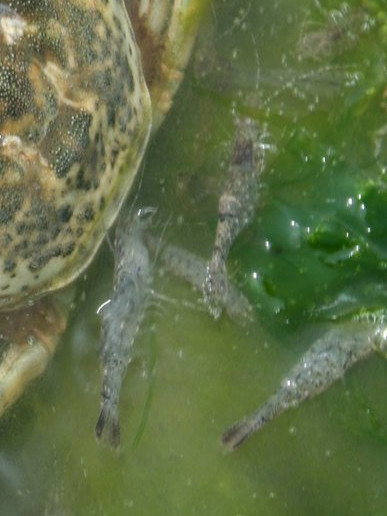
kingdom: Animalia
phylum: Arthropoda
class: Malacostraca
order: Decapoda
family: Crangonidae
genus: Crangon
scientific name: Crangon crangon
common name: Brown shrimp
